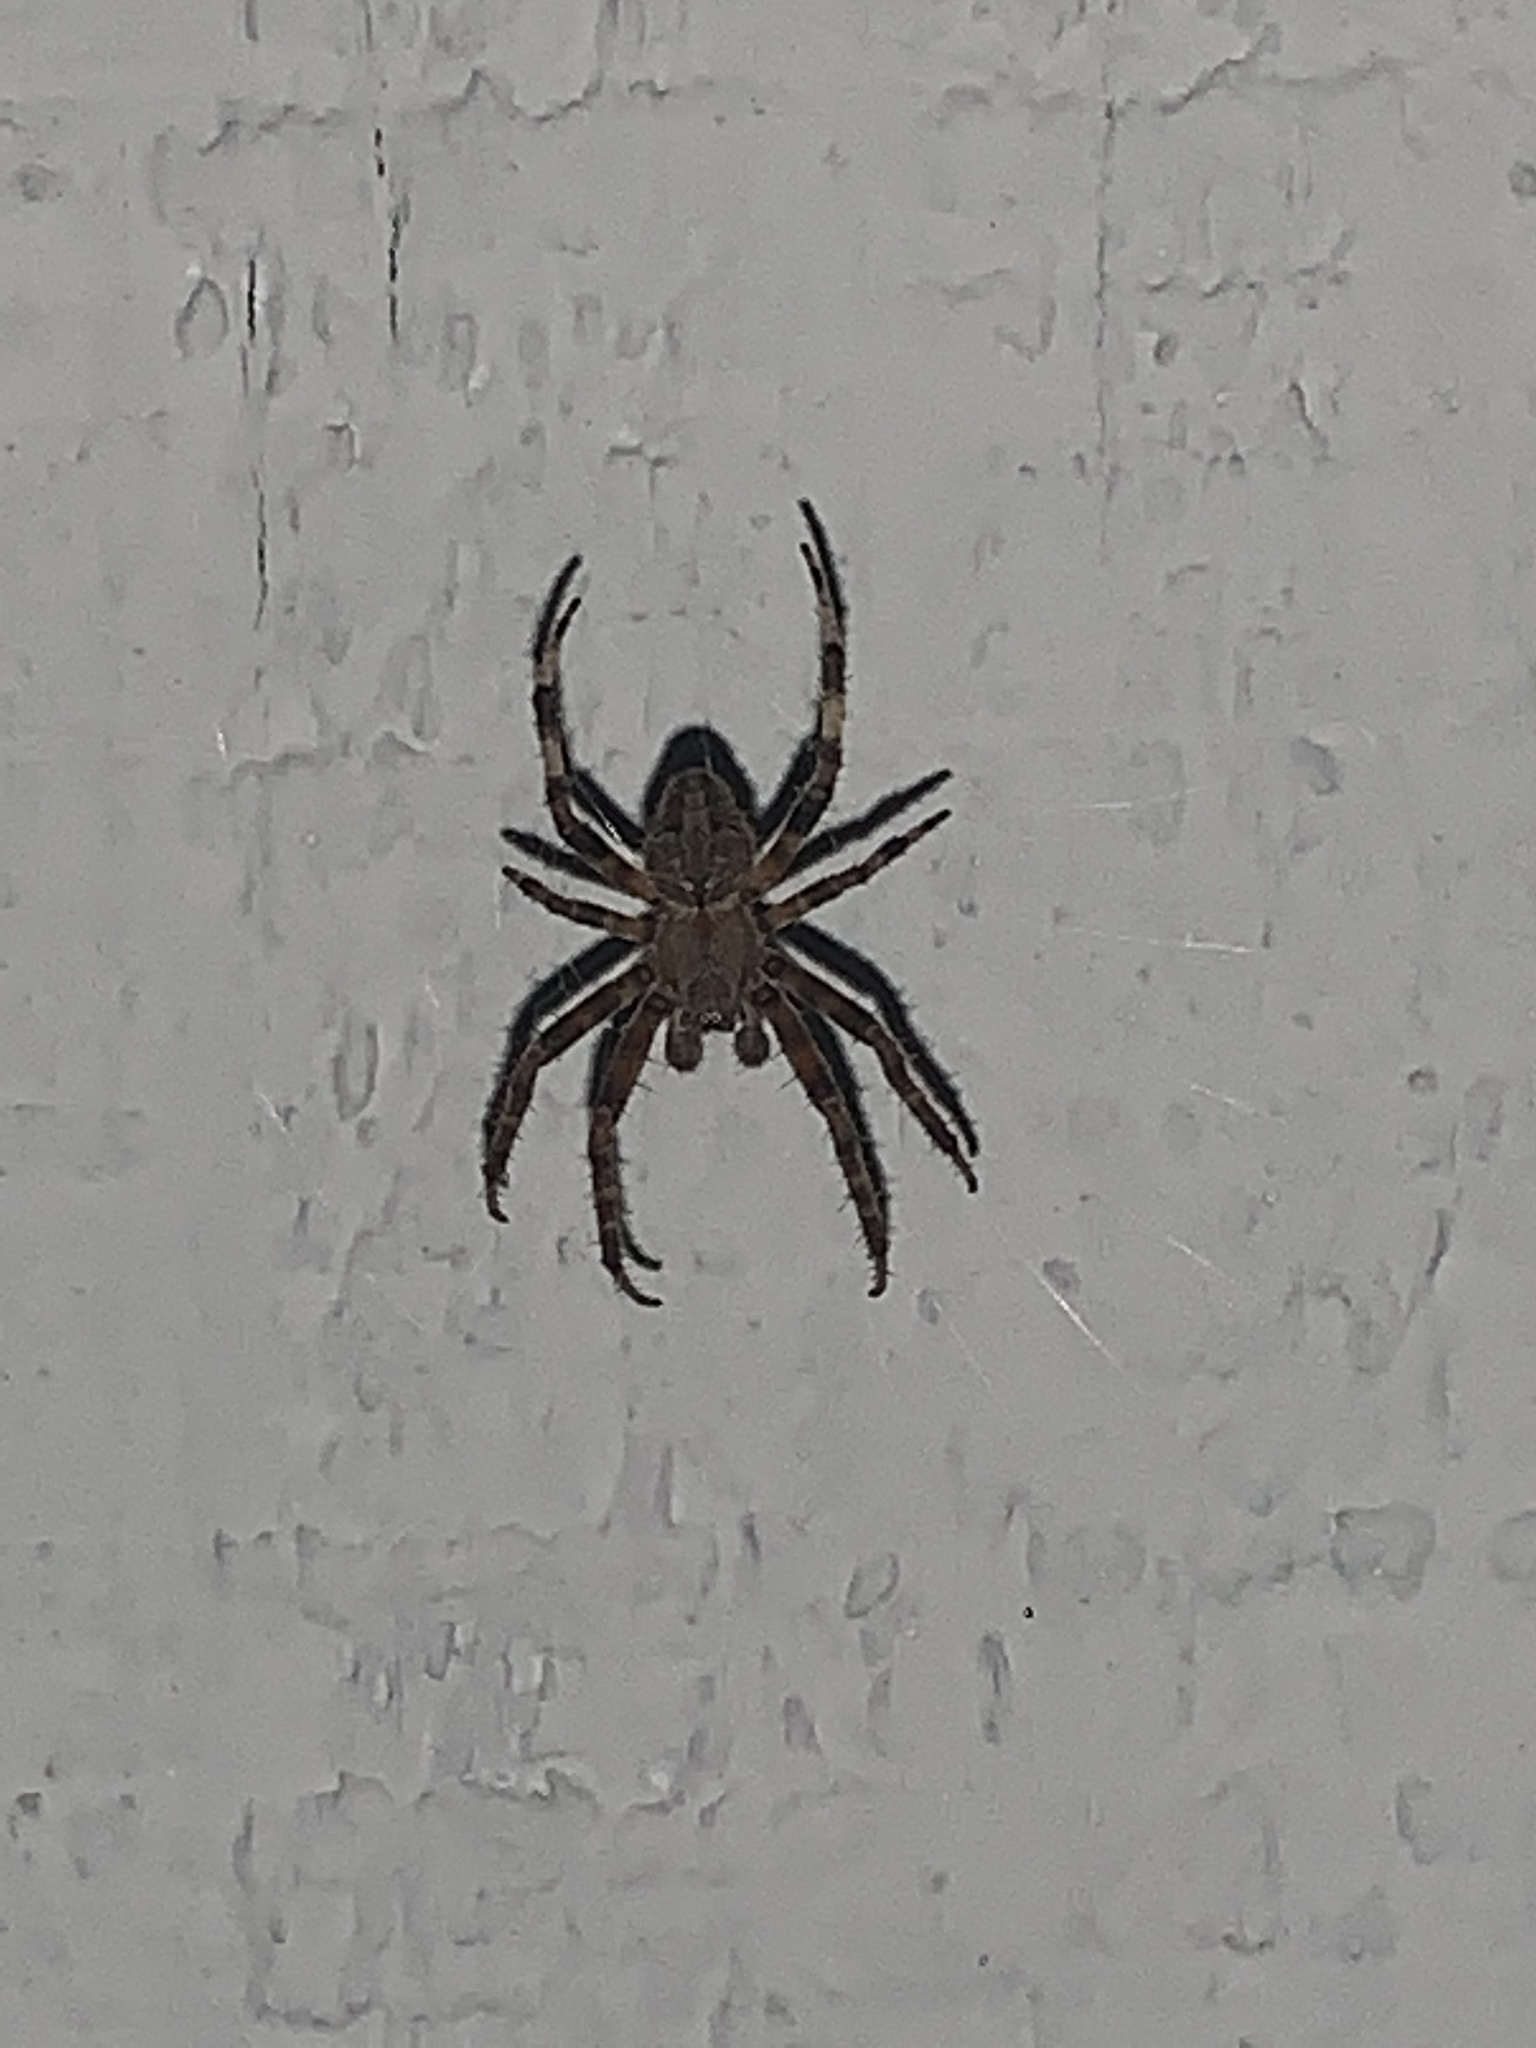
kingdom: Animalia
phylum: Arthropoda
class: Arachnida
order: Araneae
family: Araneidae
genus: Neoscona
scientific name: Neoscona arabesca
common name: Orb weavers
